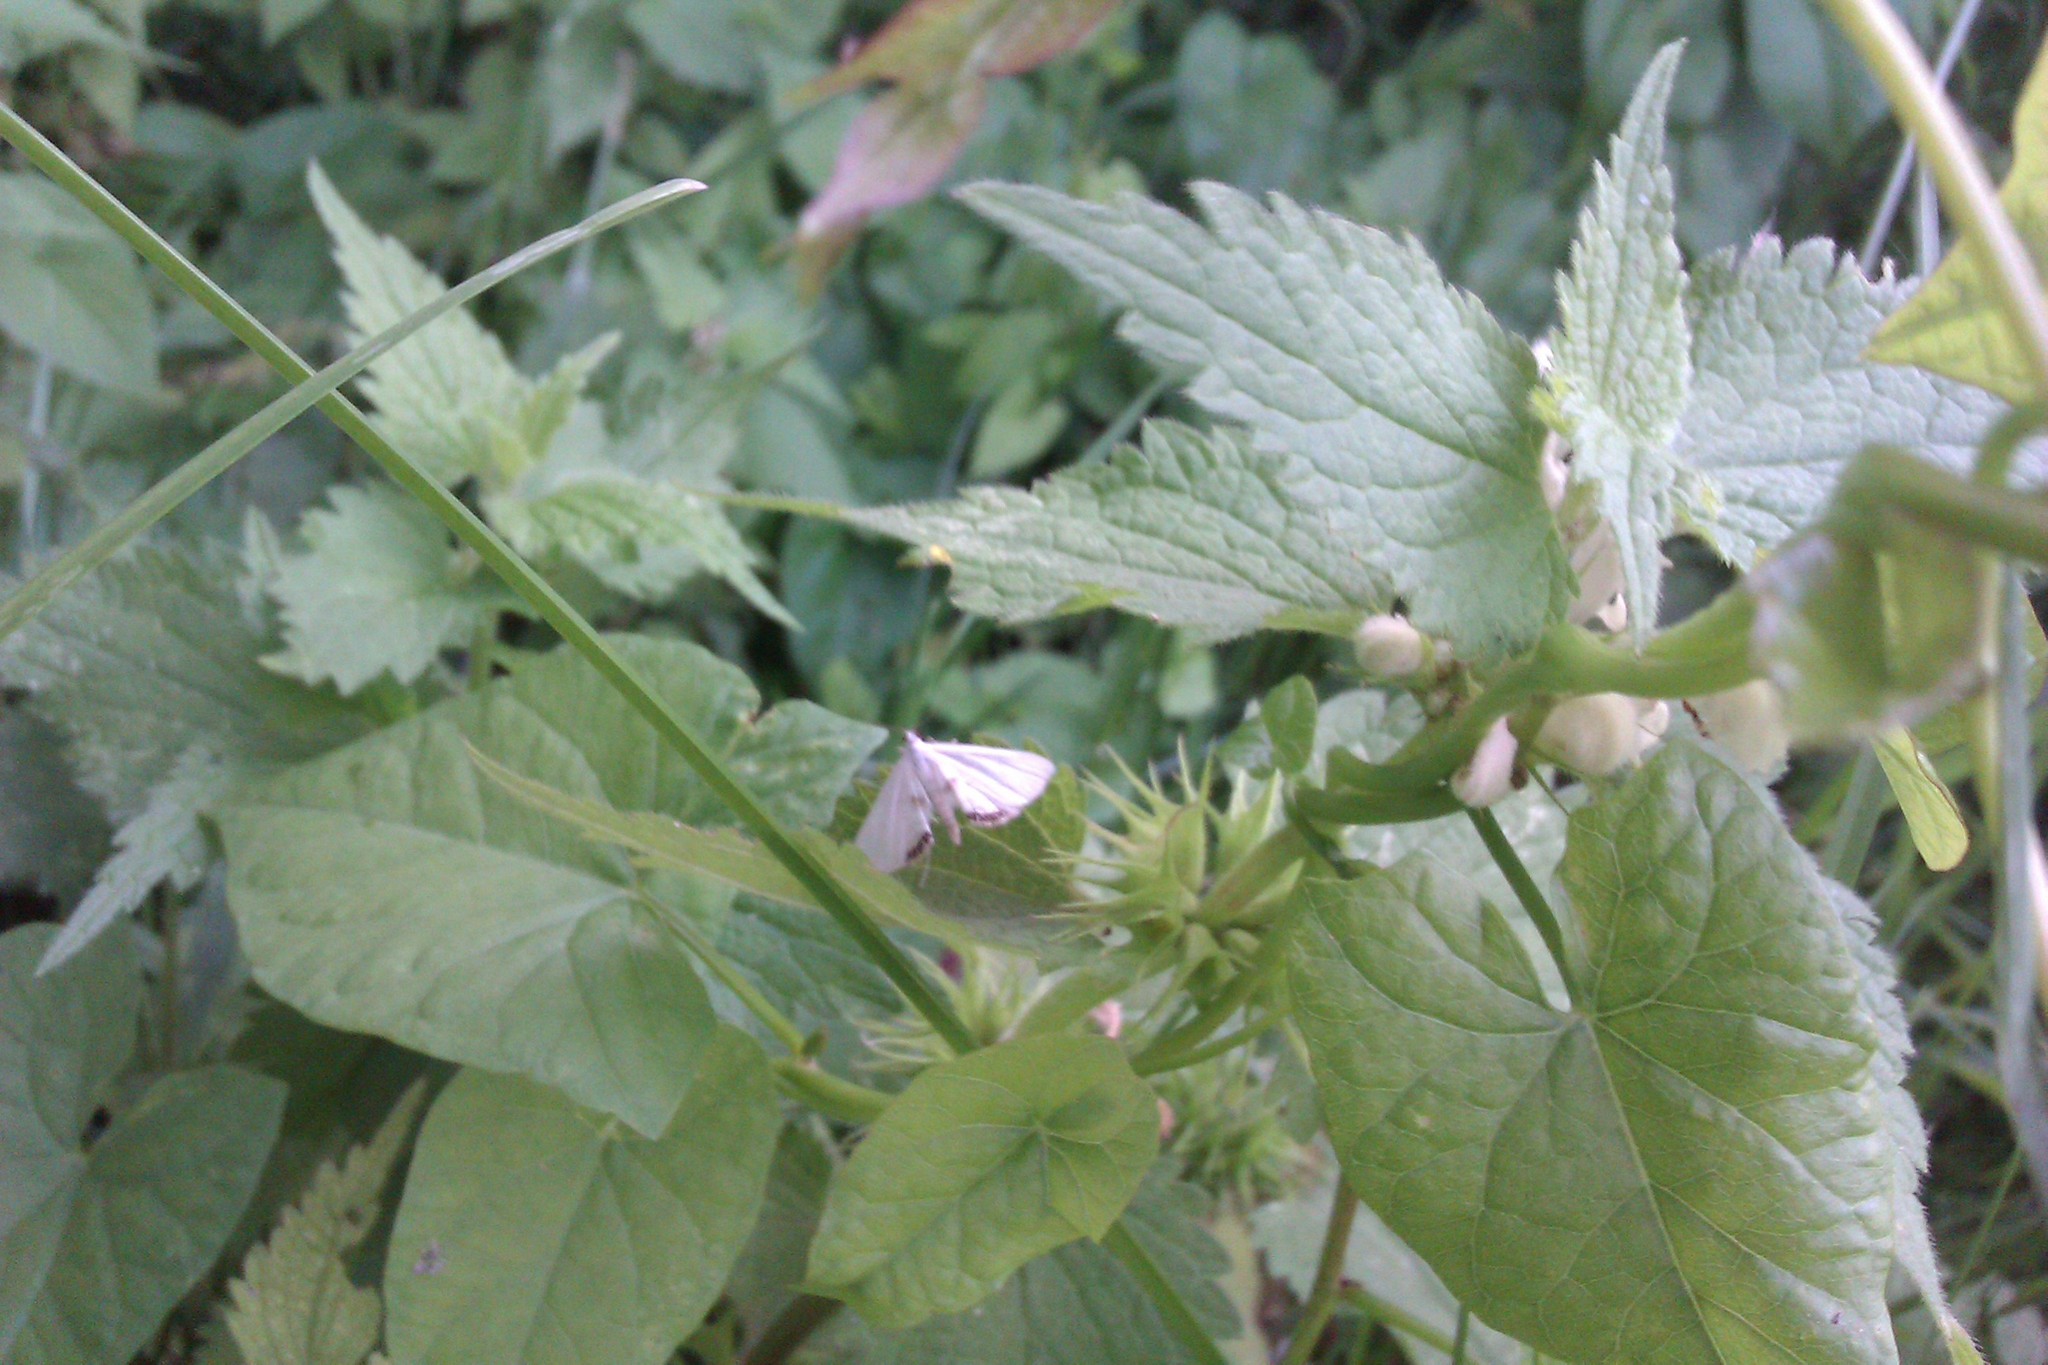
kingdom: Animalia
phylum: Arthropoda
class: Insecta
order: Lepidoptera
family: Crambidae
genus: Cataclysta
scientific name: Cataclysta lemnata
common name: Small china-mark
